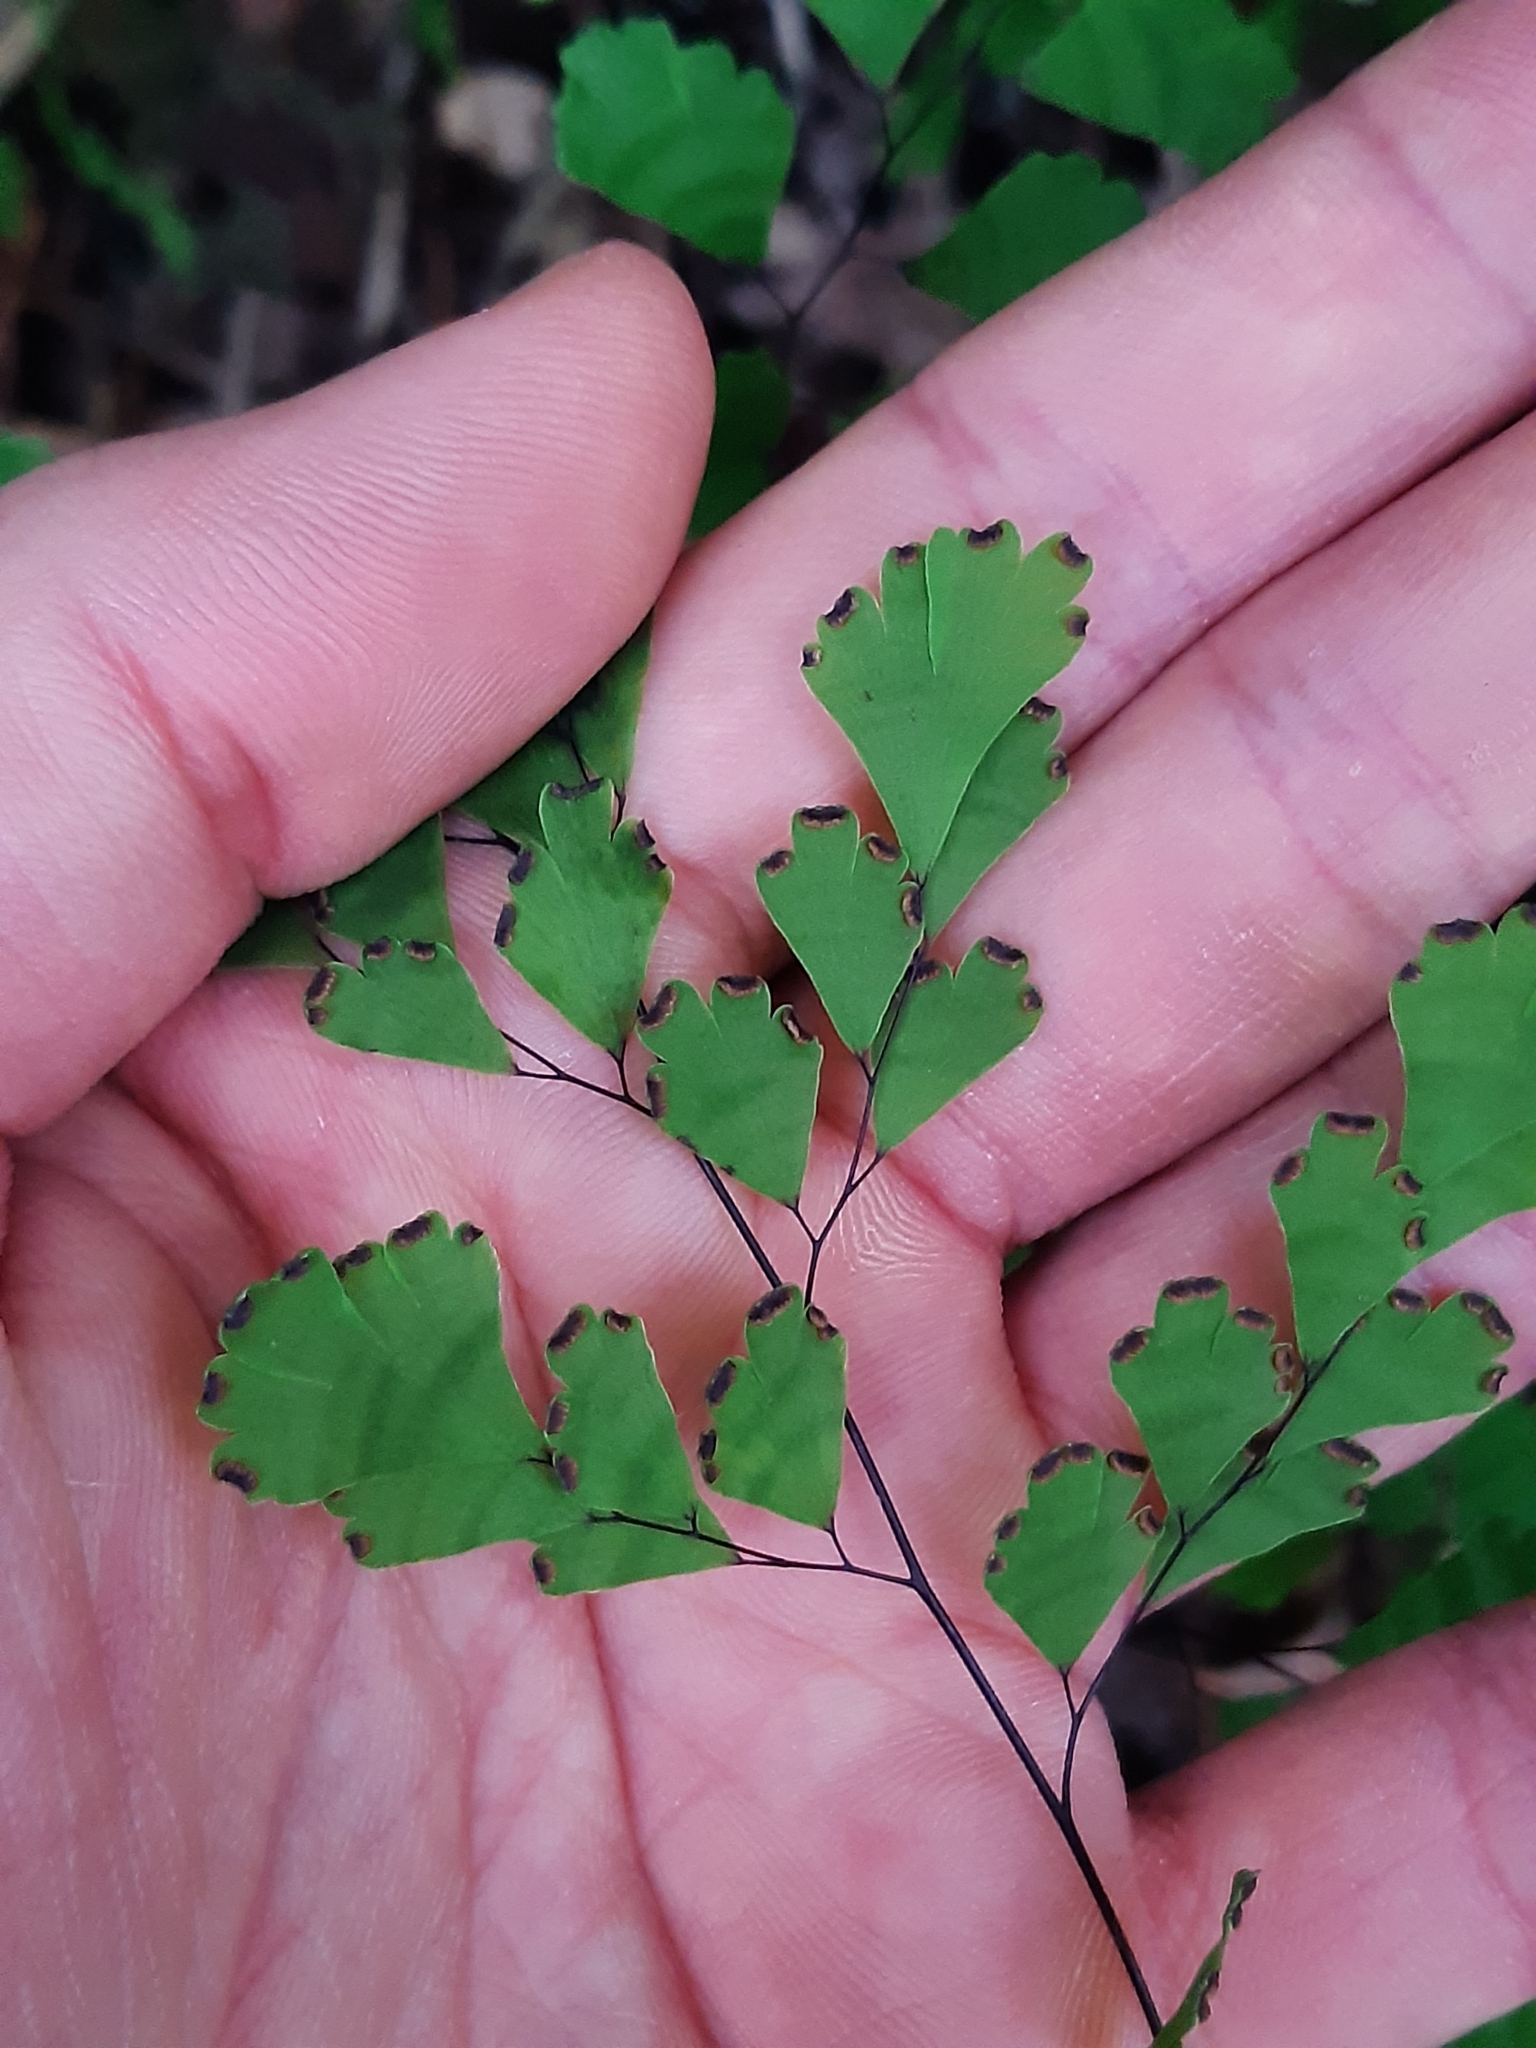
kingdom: Plantae
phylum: Tracheophyta
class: Polypodiopsida
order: Polypodiales
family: Pteridaceae
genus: Adiantum
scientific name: Adiantum capillus-veneris
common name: Maidenhair fern
